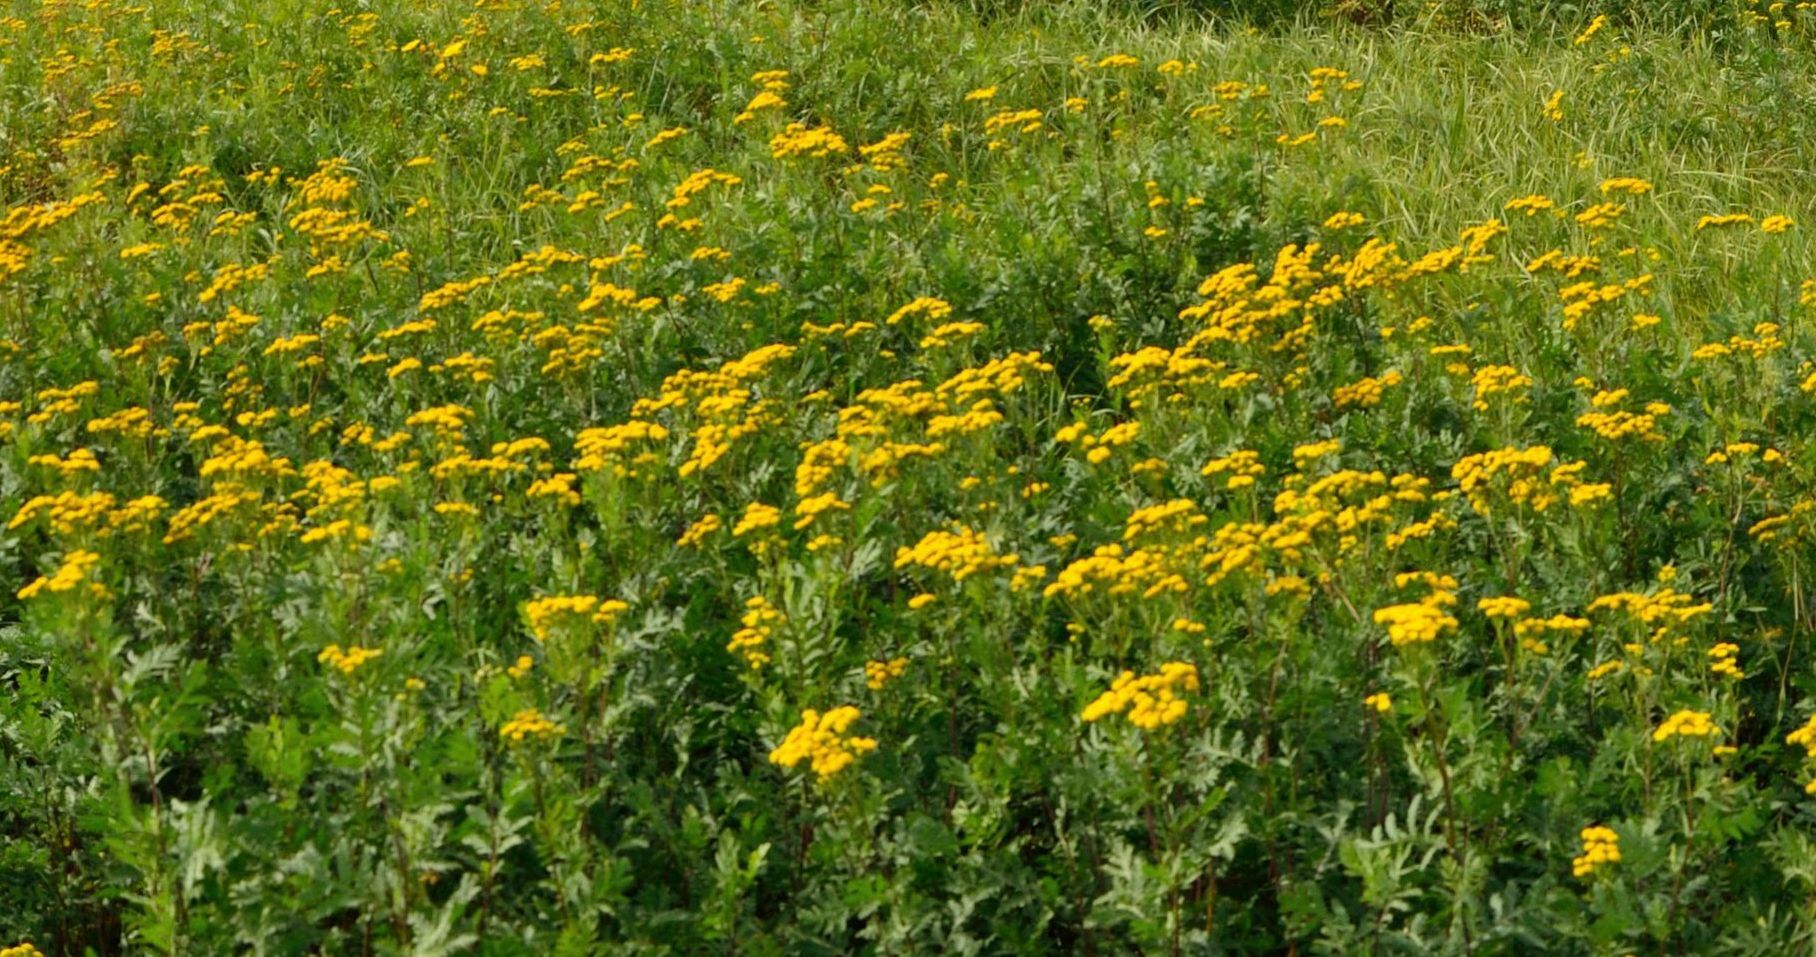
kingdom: Plantae
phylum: Tracheophyta
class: Magnoliopsida
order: Asterales
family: Asteraceae
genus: Tanacetum
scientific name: Tanacetum vulgare
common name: Common tansy
